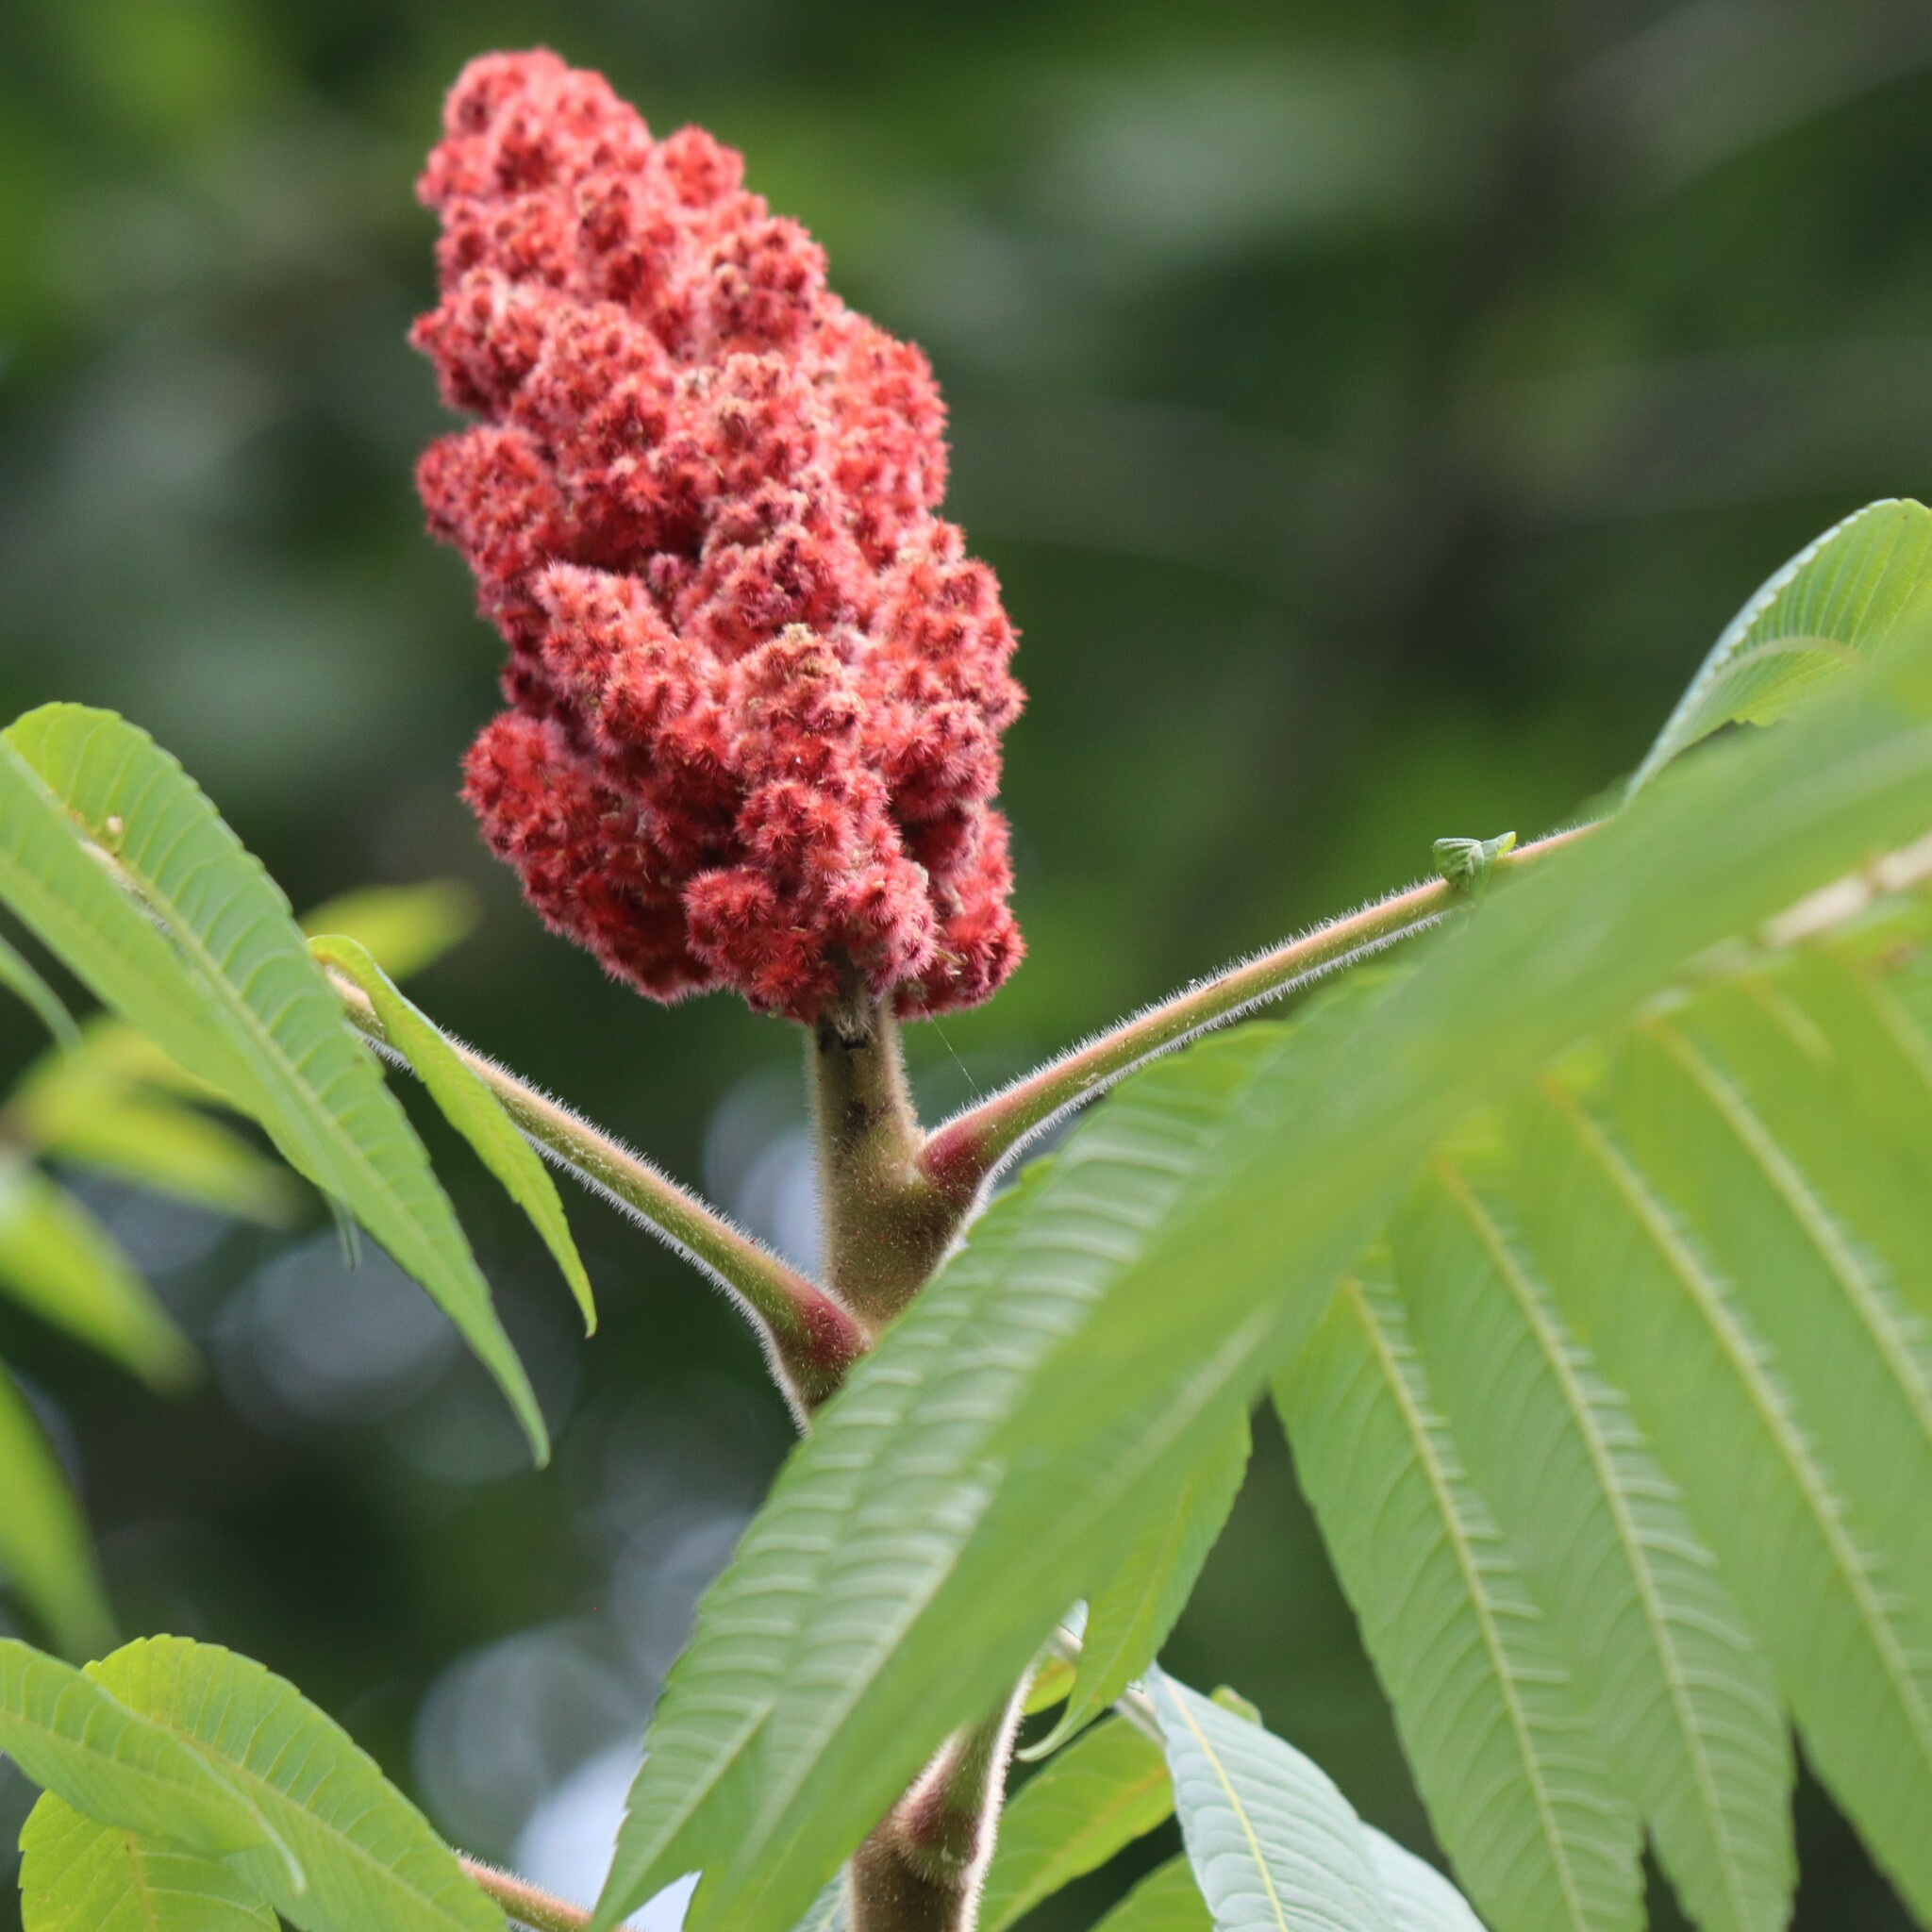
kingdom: Plantae
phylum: Tracheophyta
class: Magnoliopsida
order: Sapindales
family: Anacardiaceae
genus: Rhus
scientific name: Rhus typhina
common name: Staghorn sumac
